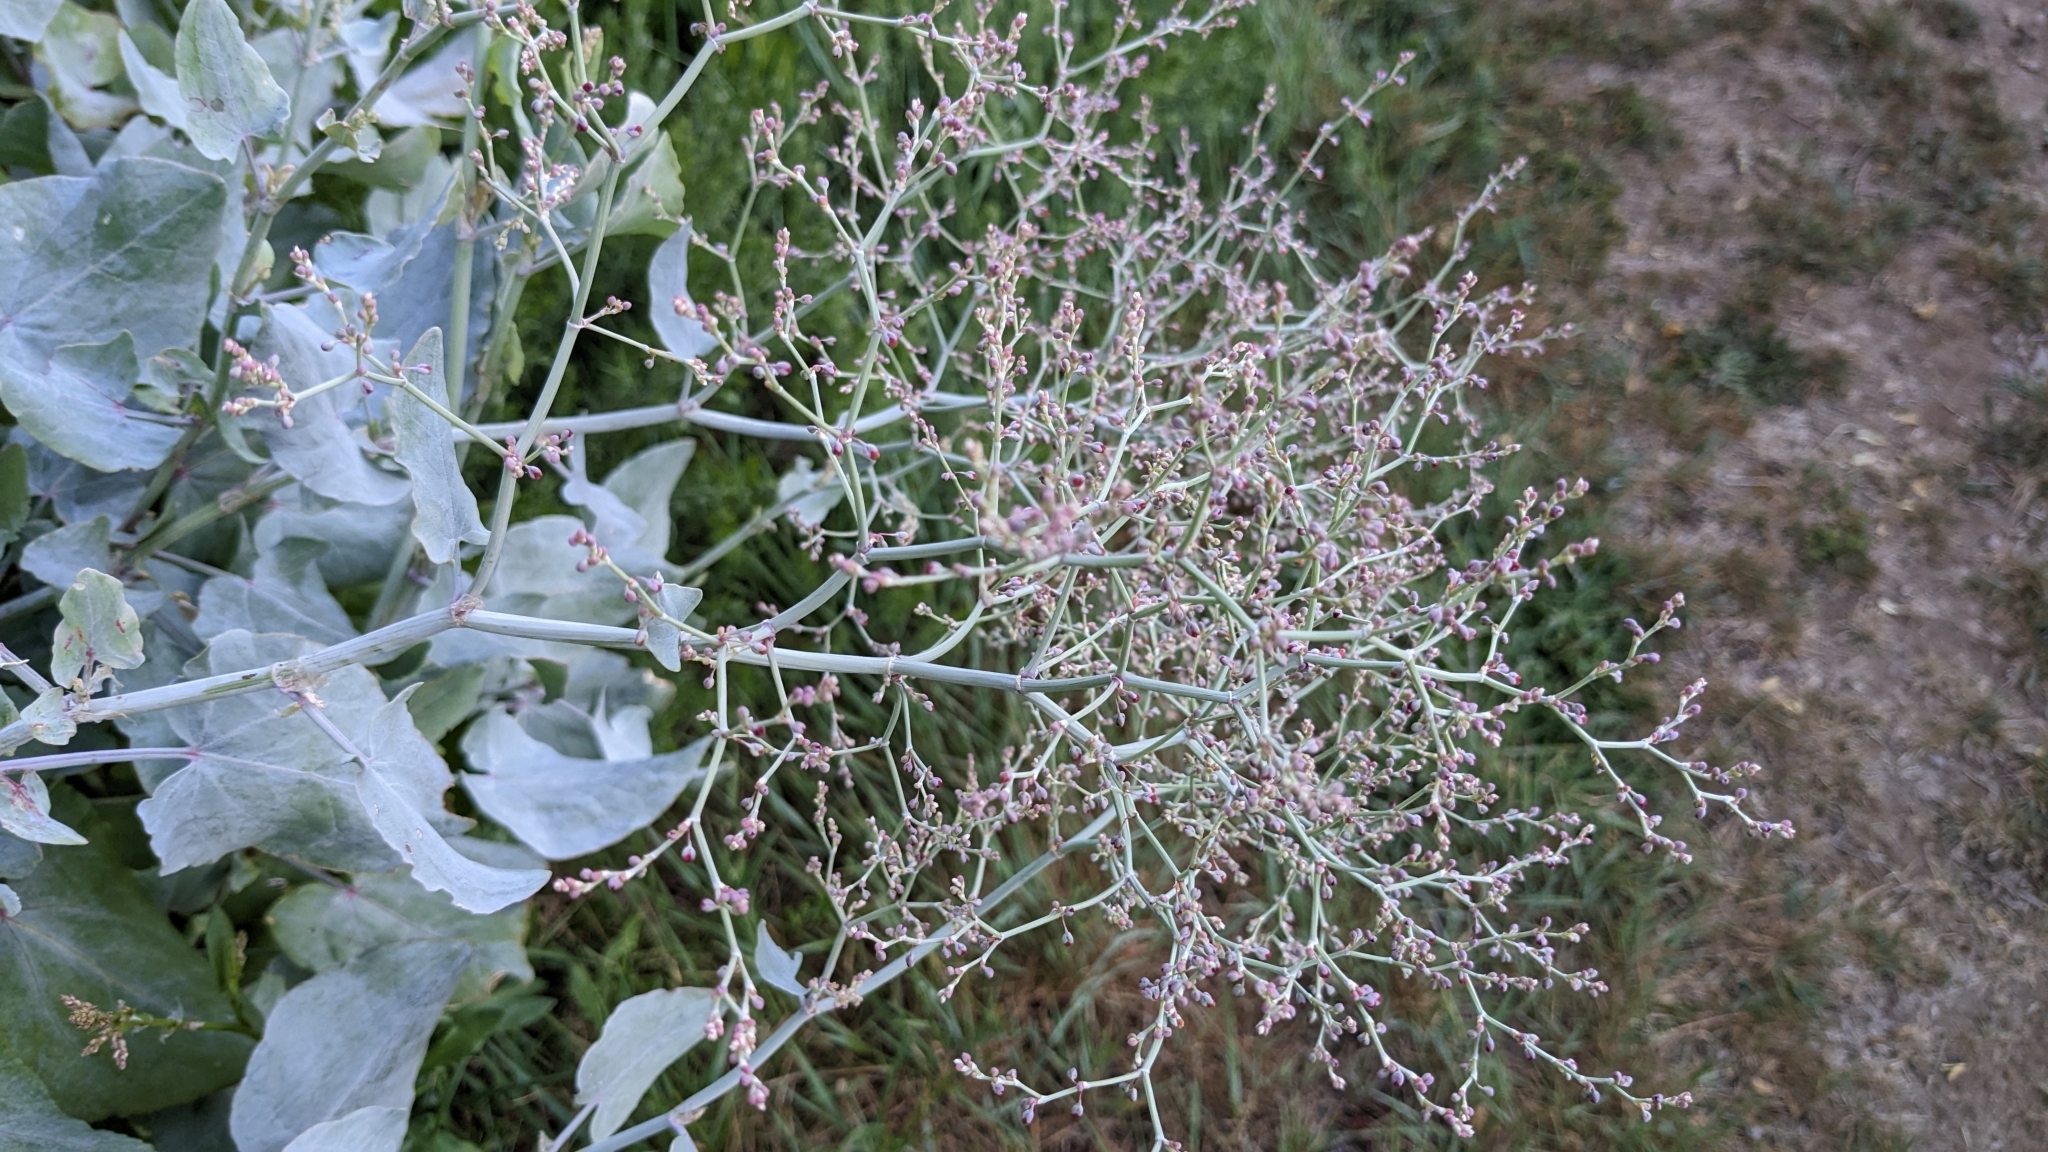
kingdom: Plantae
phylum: Tracheophyta
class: Magnoliopsida
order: Caryophyllales
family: Polygonaceae
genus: Rumex
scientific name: Rumex maderensis
